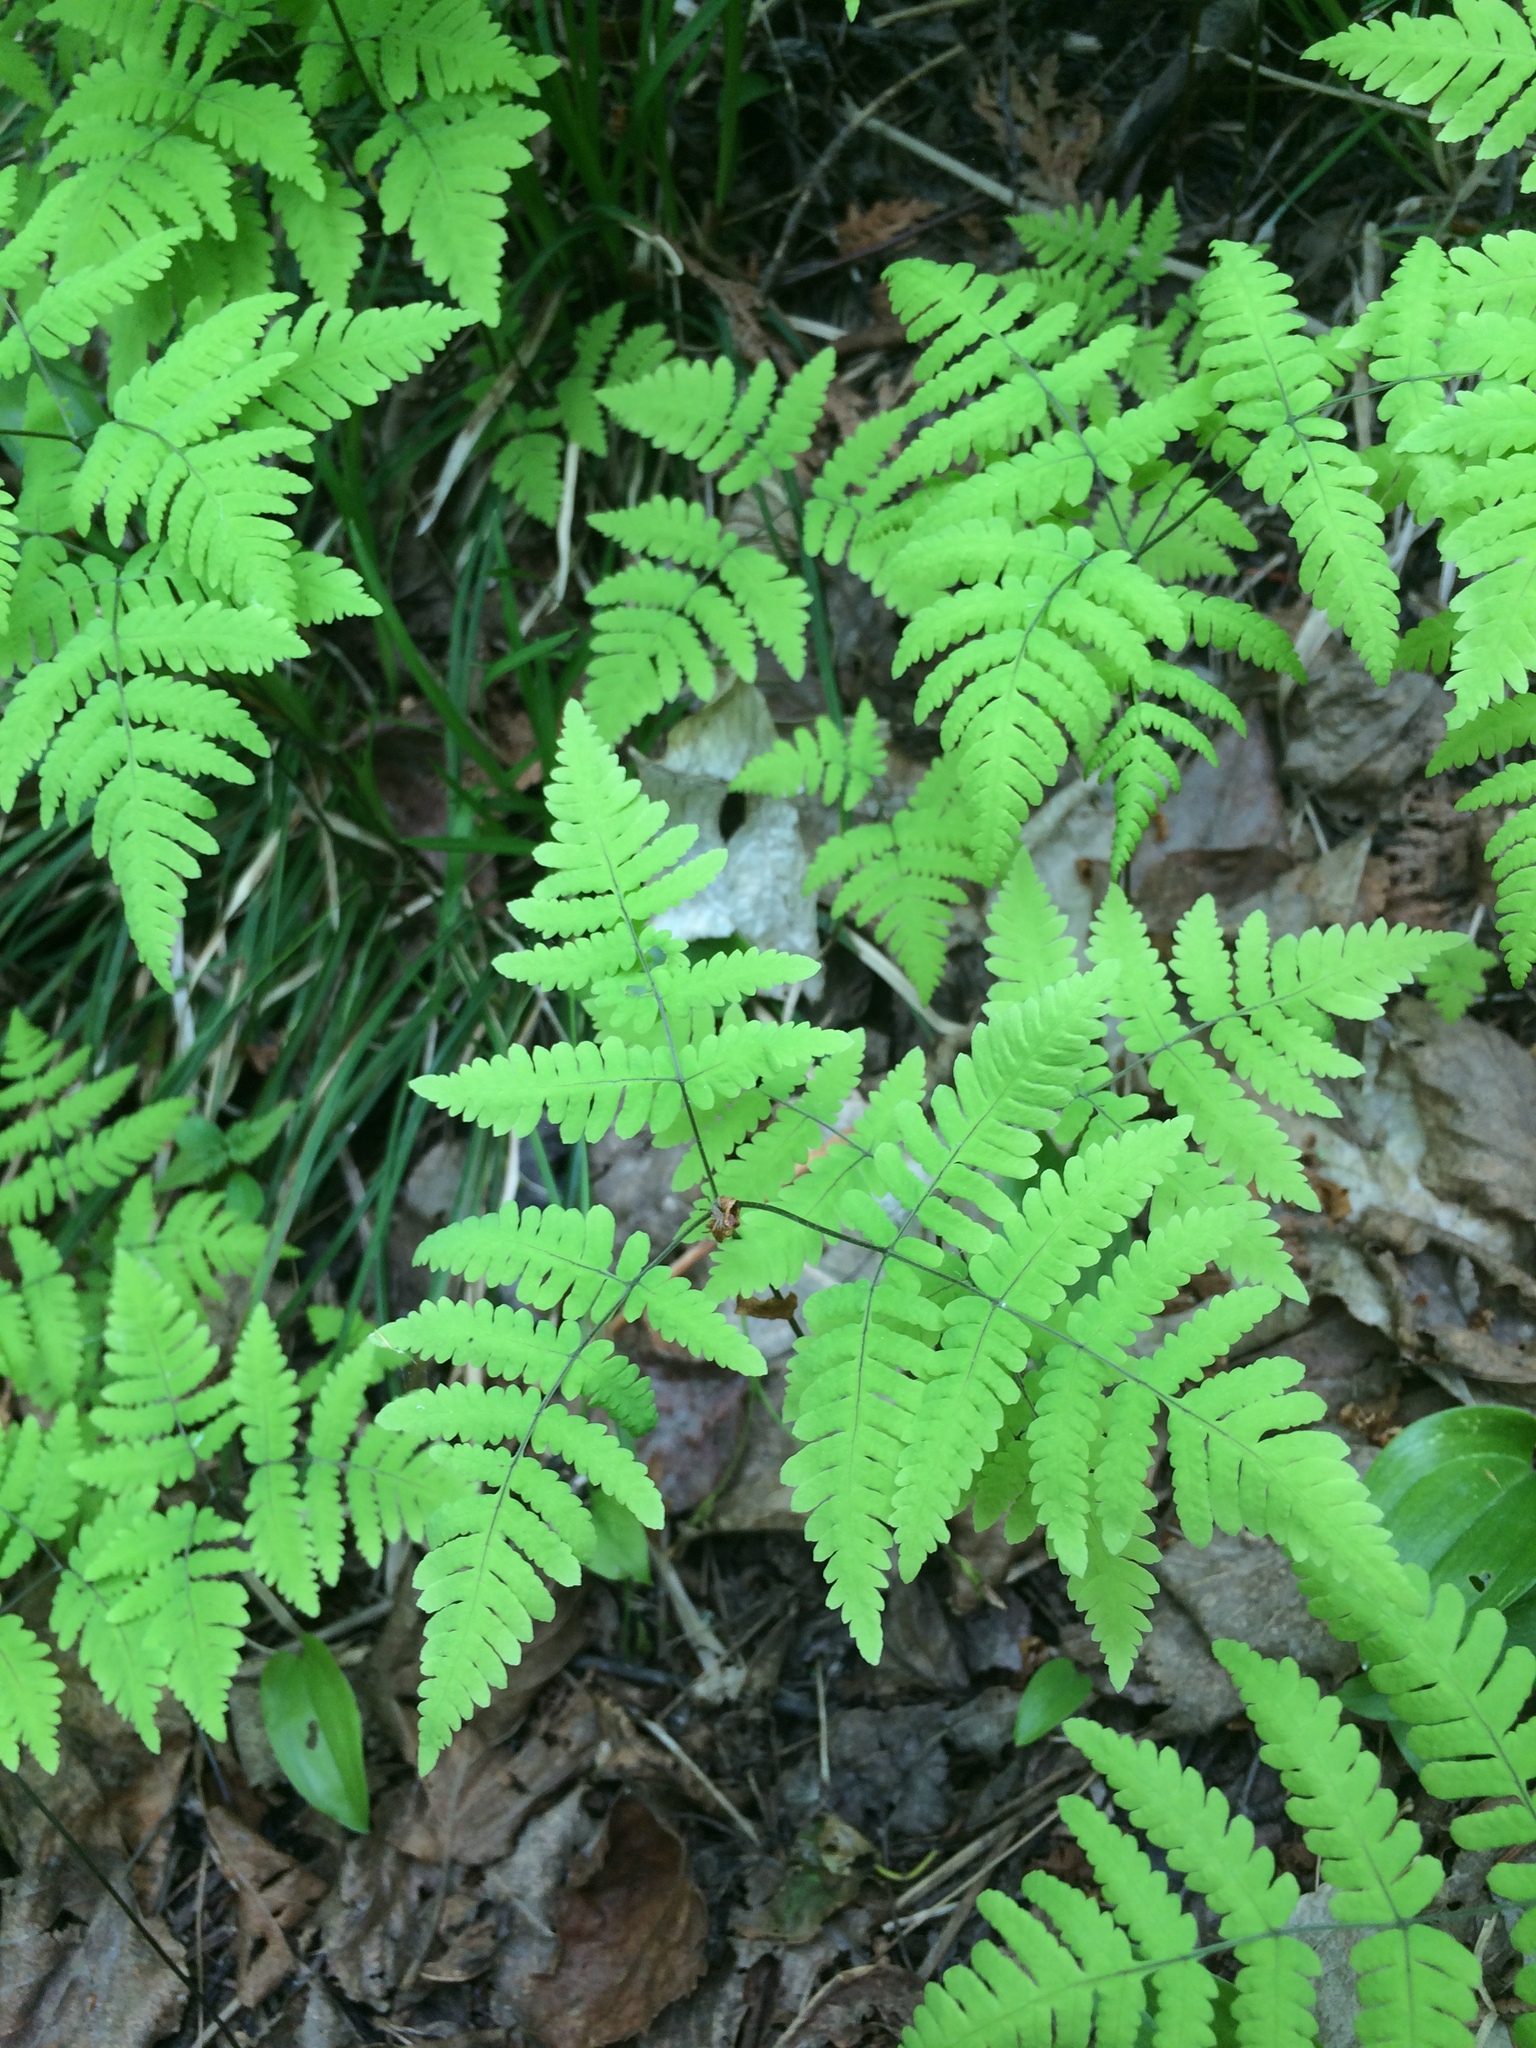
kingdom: Plantae
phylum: Tracheophyta
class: Polypodiopsida
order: Polypodiales
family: Cystopteridaceae
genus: Gymnocarpium
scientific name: Gymnocarpium dryopteris
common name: Oak fern
